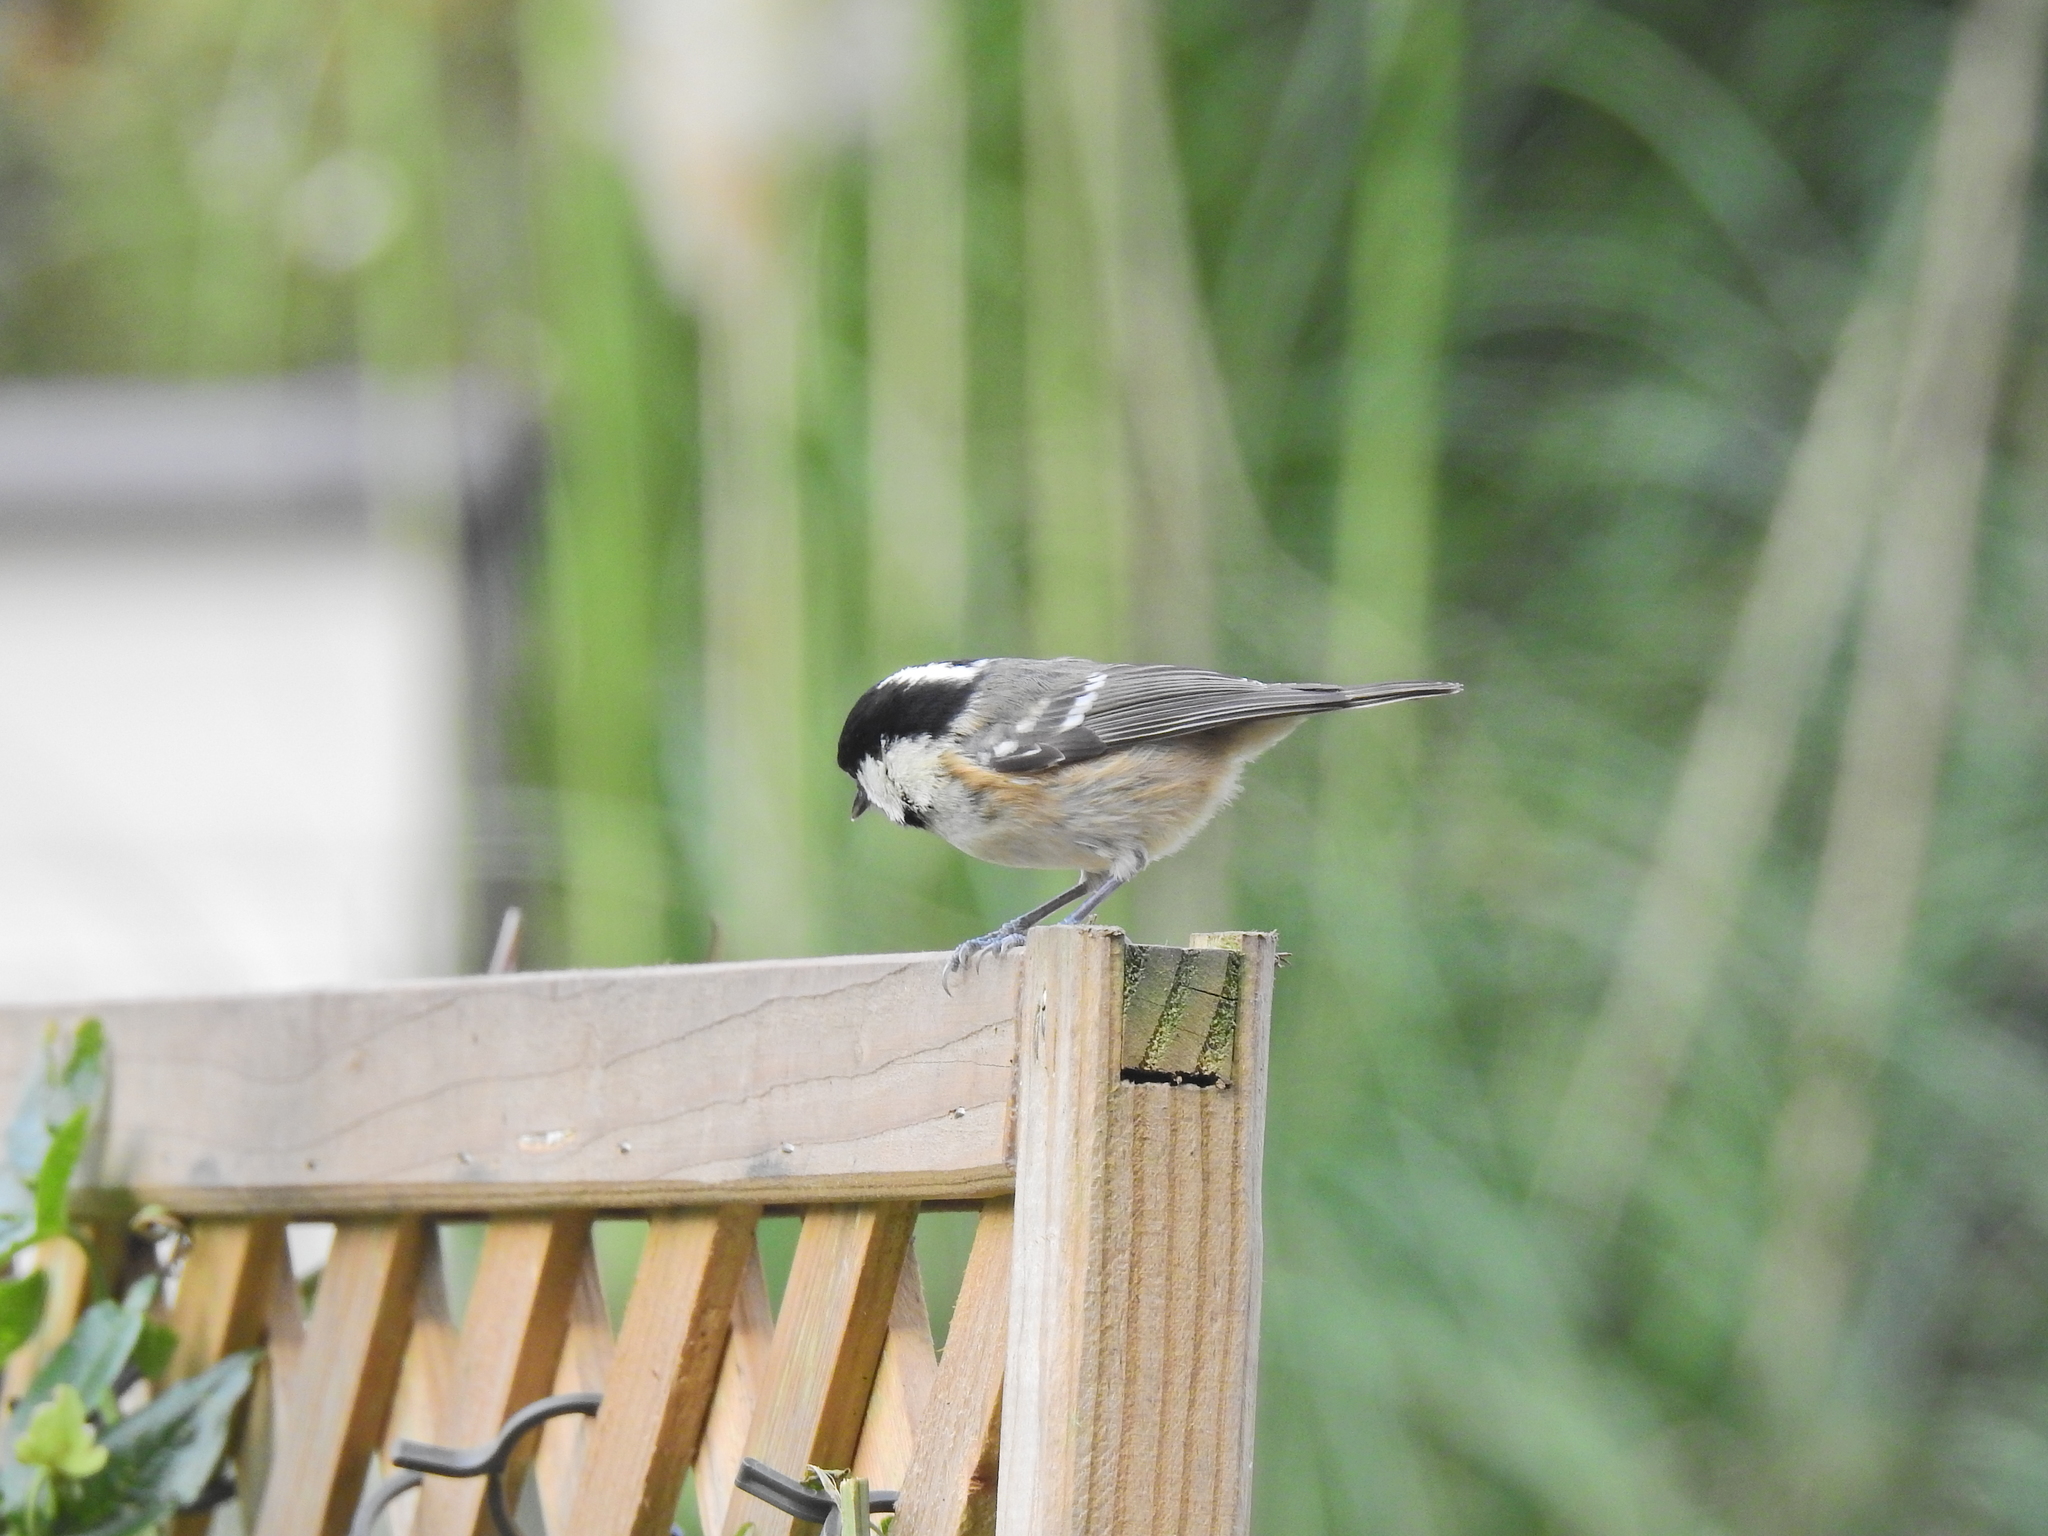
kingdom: Animalia
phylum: Chordata
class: Aves
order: Passeriformes
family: Paridae
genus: Periparus
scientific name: Periparus ater
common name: Coal tit
